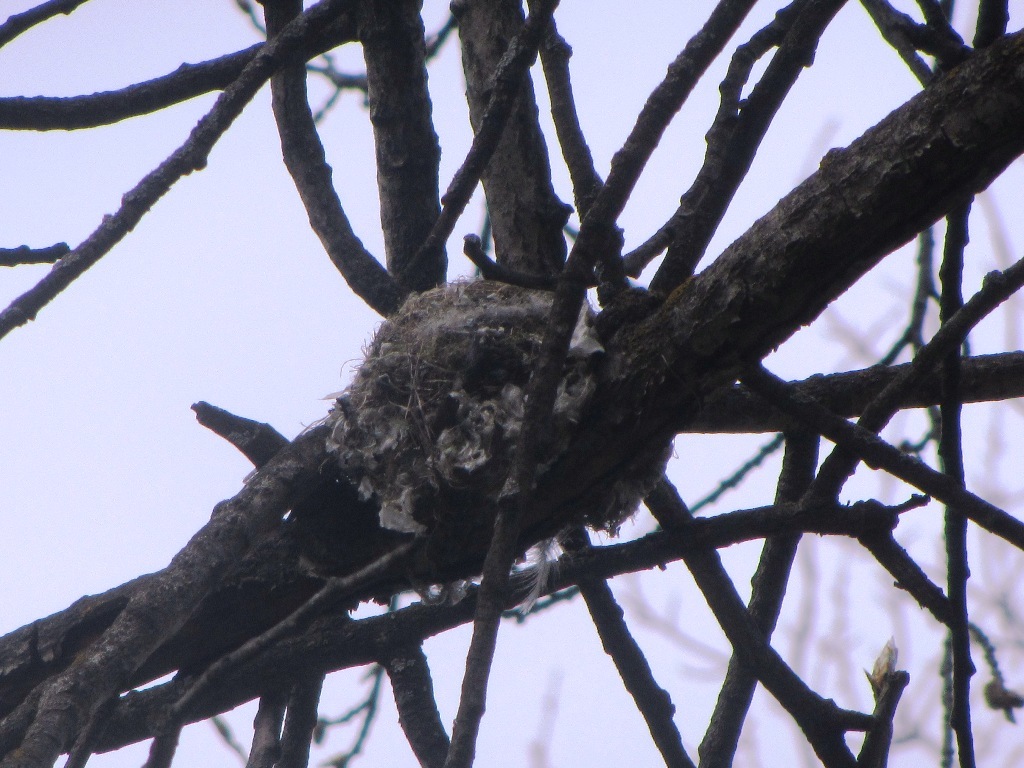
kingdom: Animalia
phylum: Chordata
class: Aves
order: Passeriformes
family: Fringillidae
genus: Fringilla
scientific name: Fringilla montifringilla
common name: Brambling
